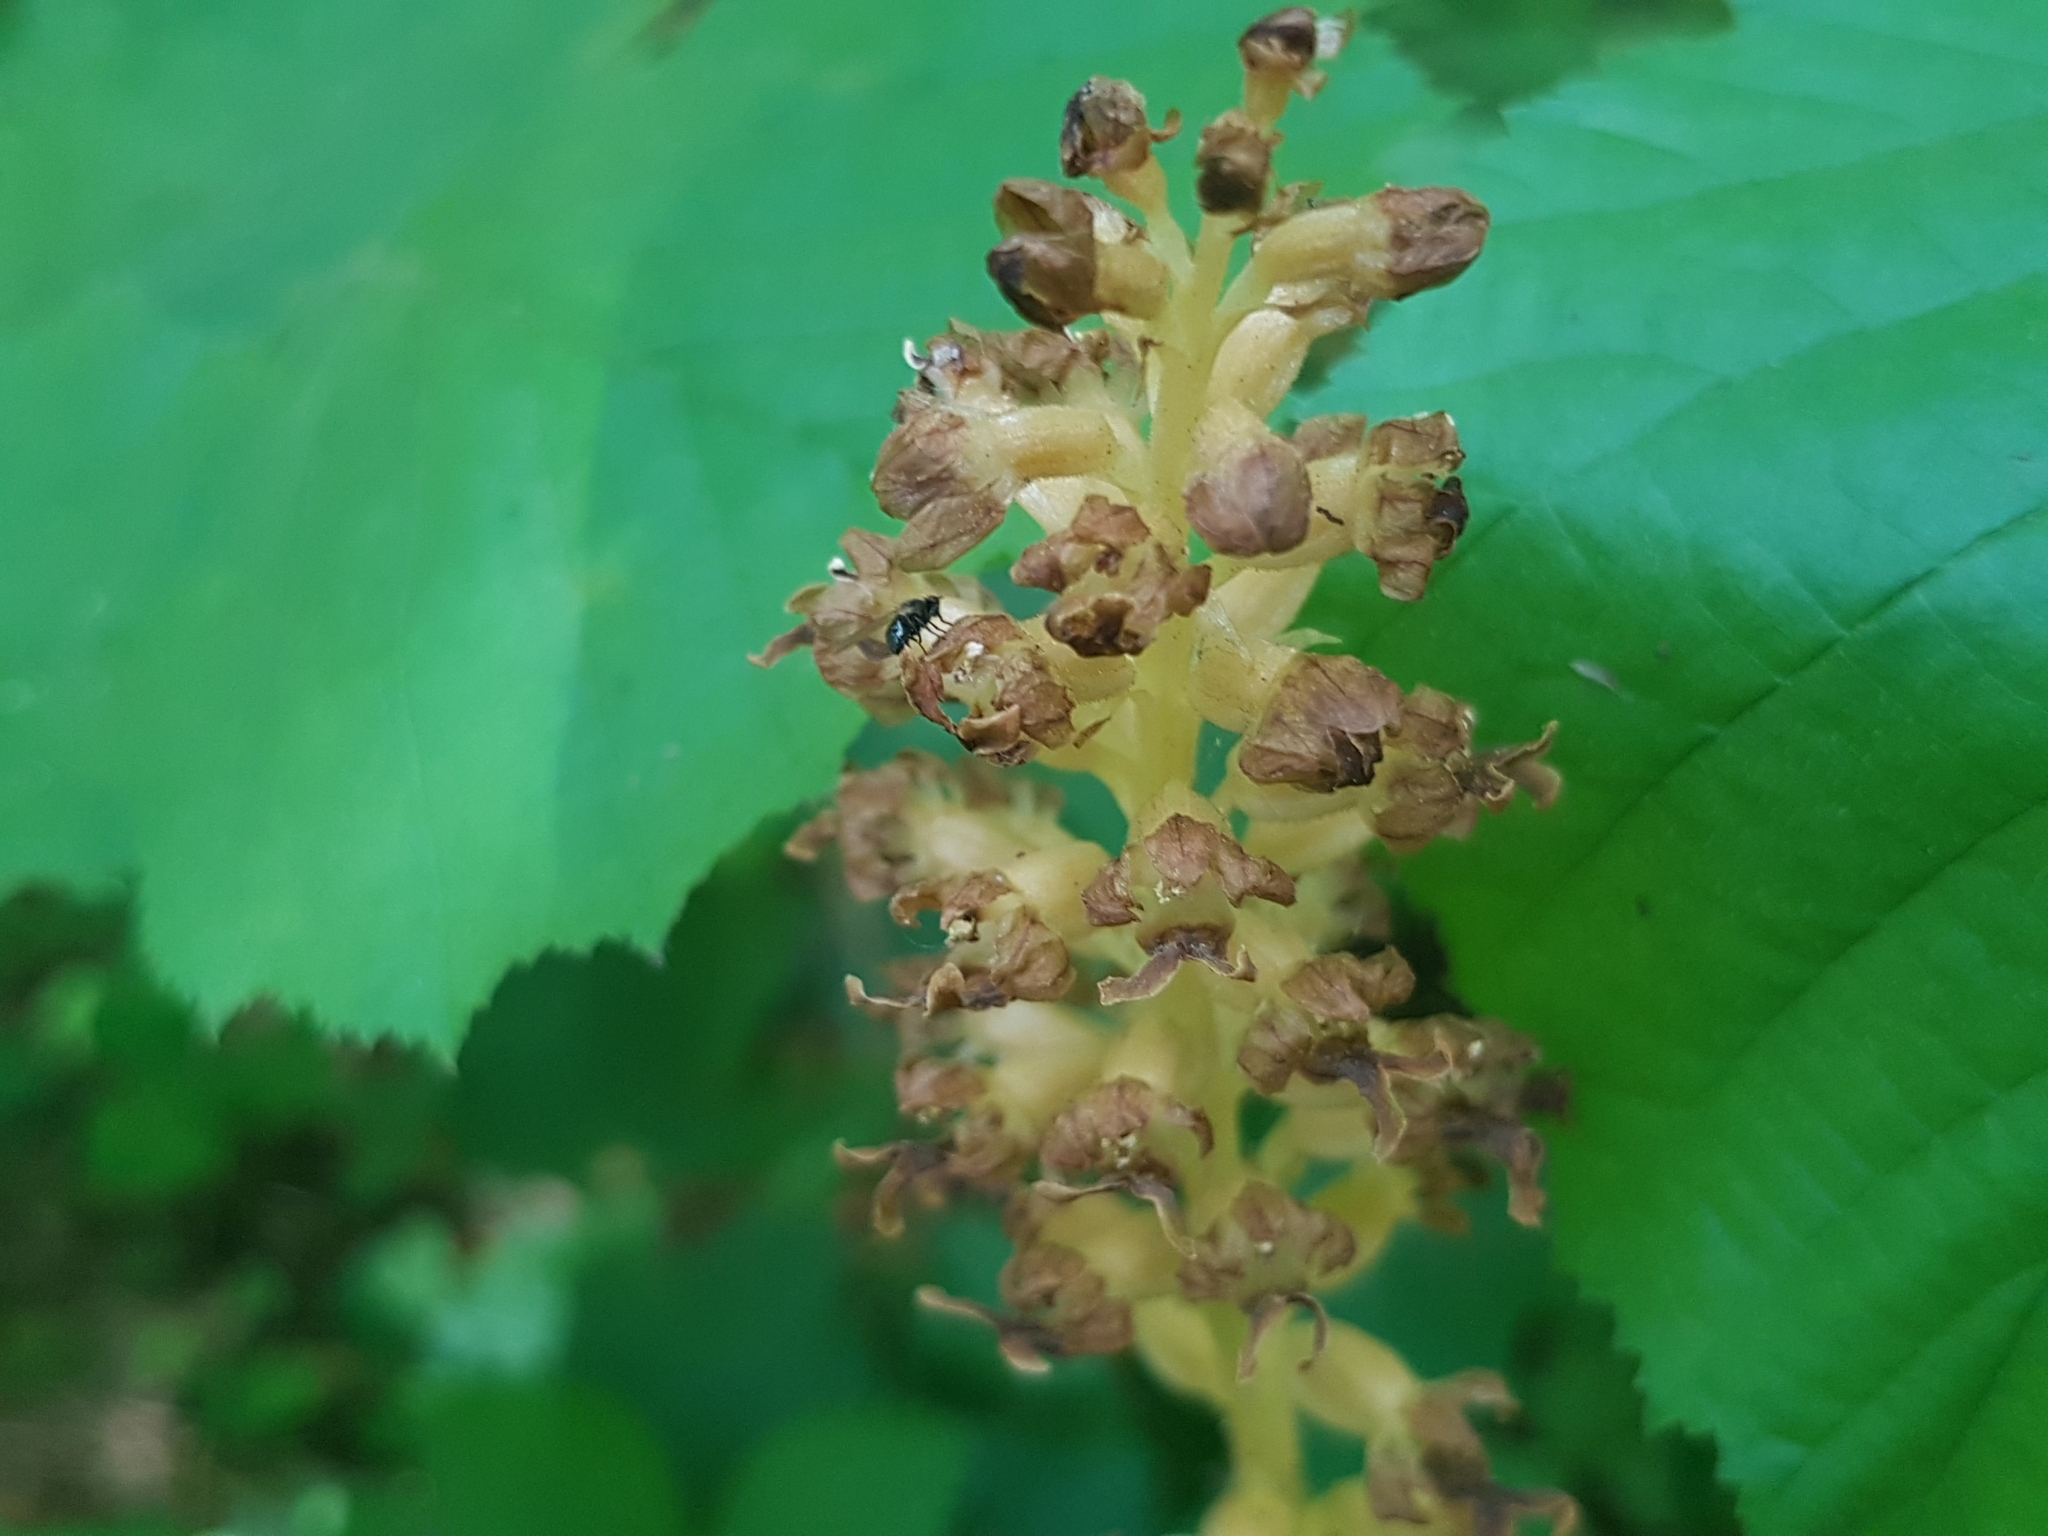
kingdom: Plantae
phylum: Tracheophyta
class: Liliopsida
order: Asparagales
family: Orchidaceae
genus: Neottia
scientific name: Neottia nidus-avis
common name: Bird's-nest orchid
